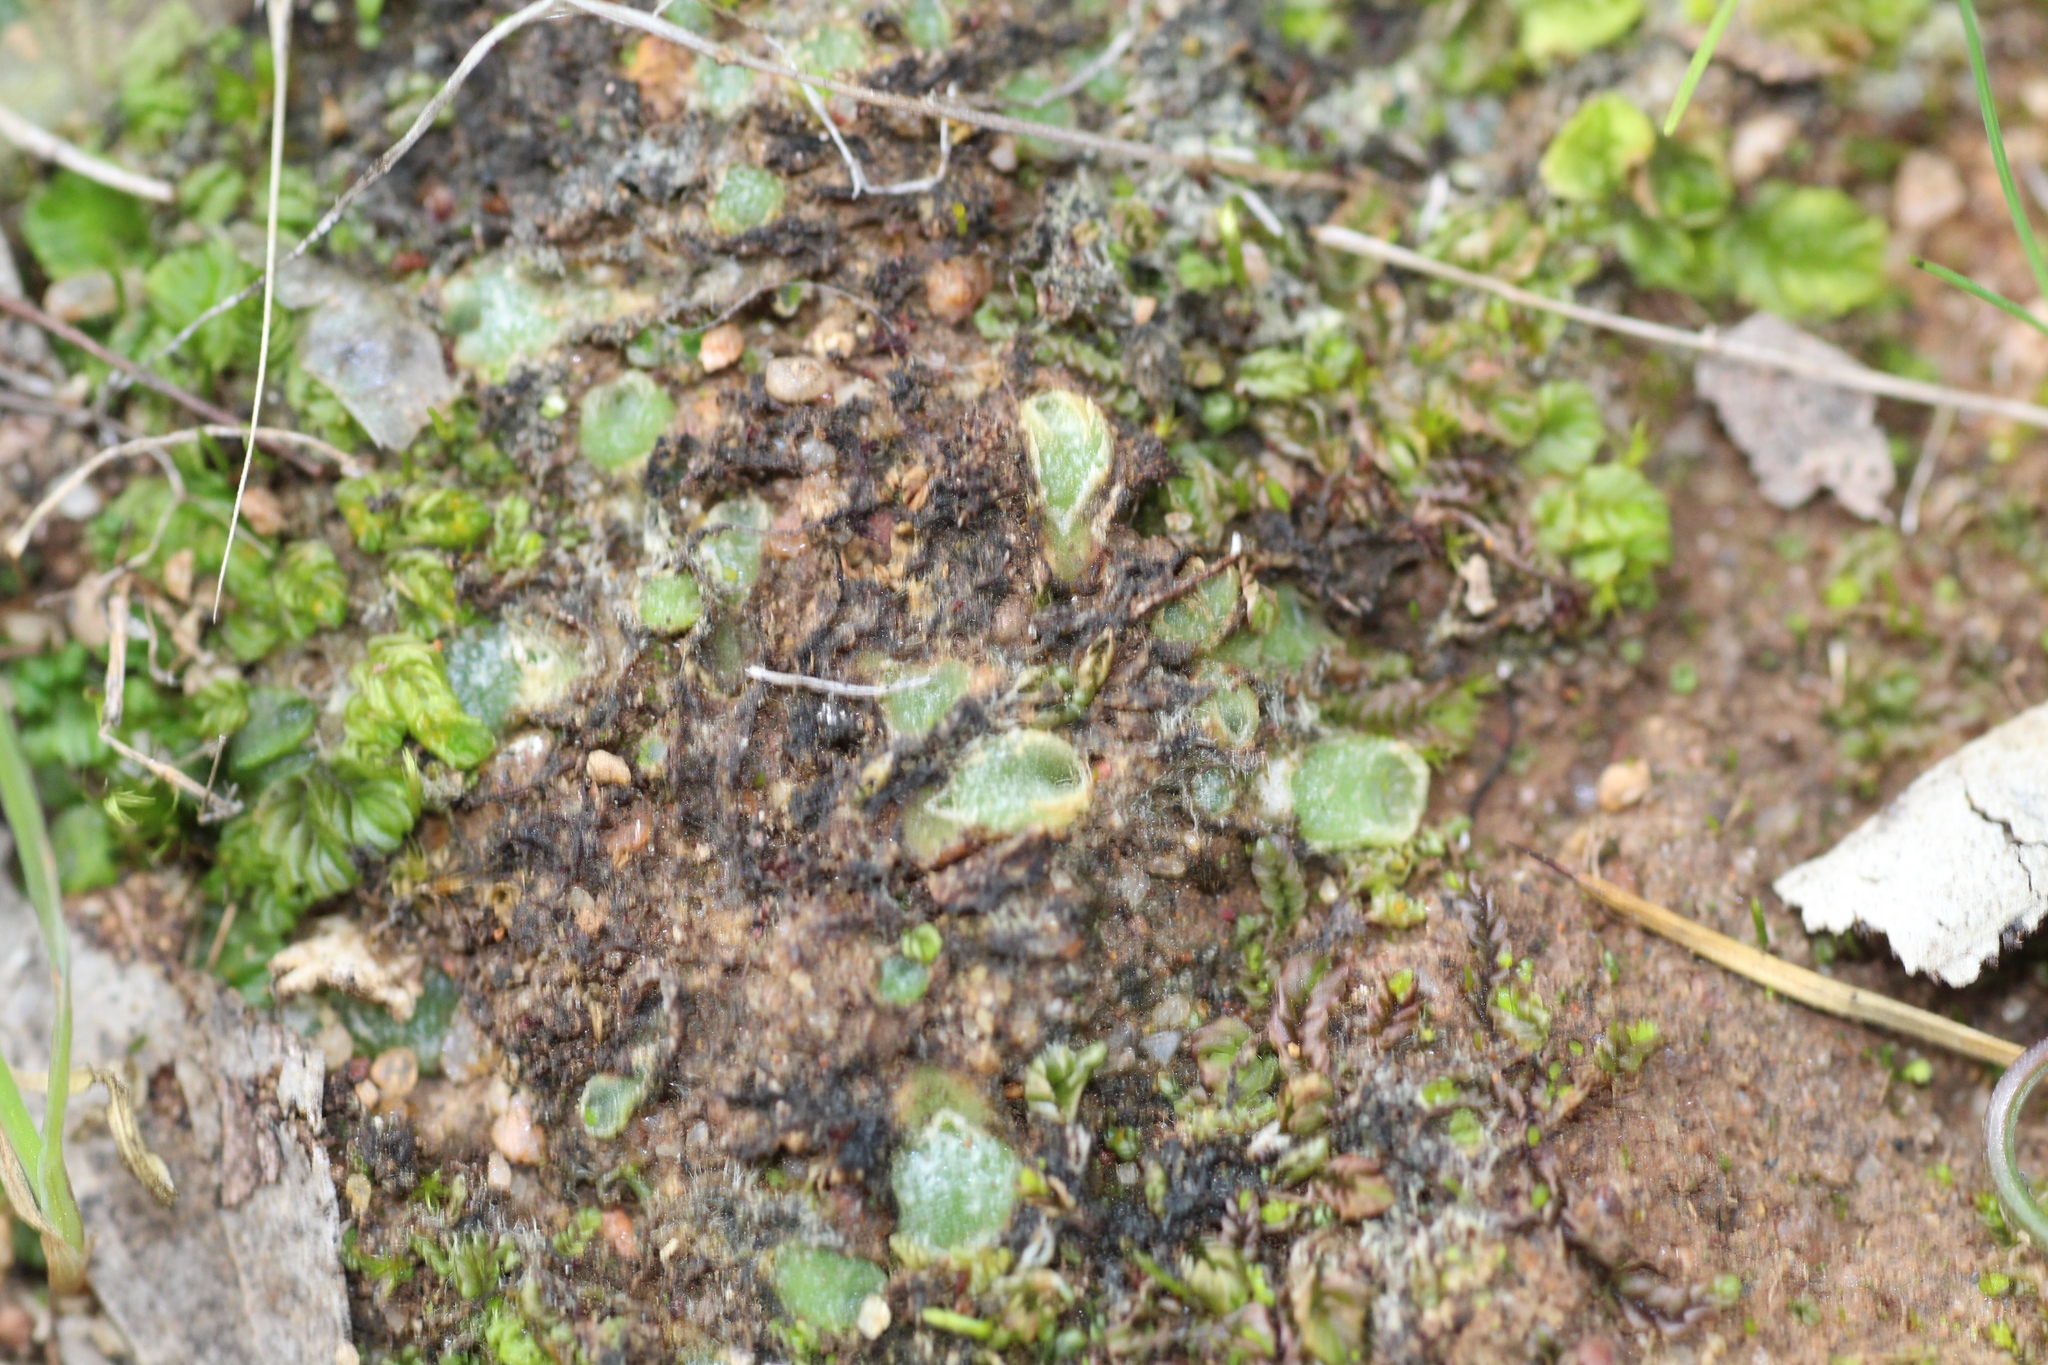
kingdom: Plantae
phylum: Marchantiophyta
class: Jungermanniopsida
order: Jungermanniales
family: Acrobolbaceae
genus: Enigmella
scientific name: Enigmella thallina
